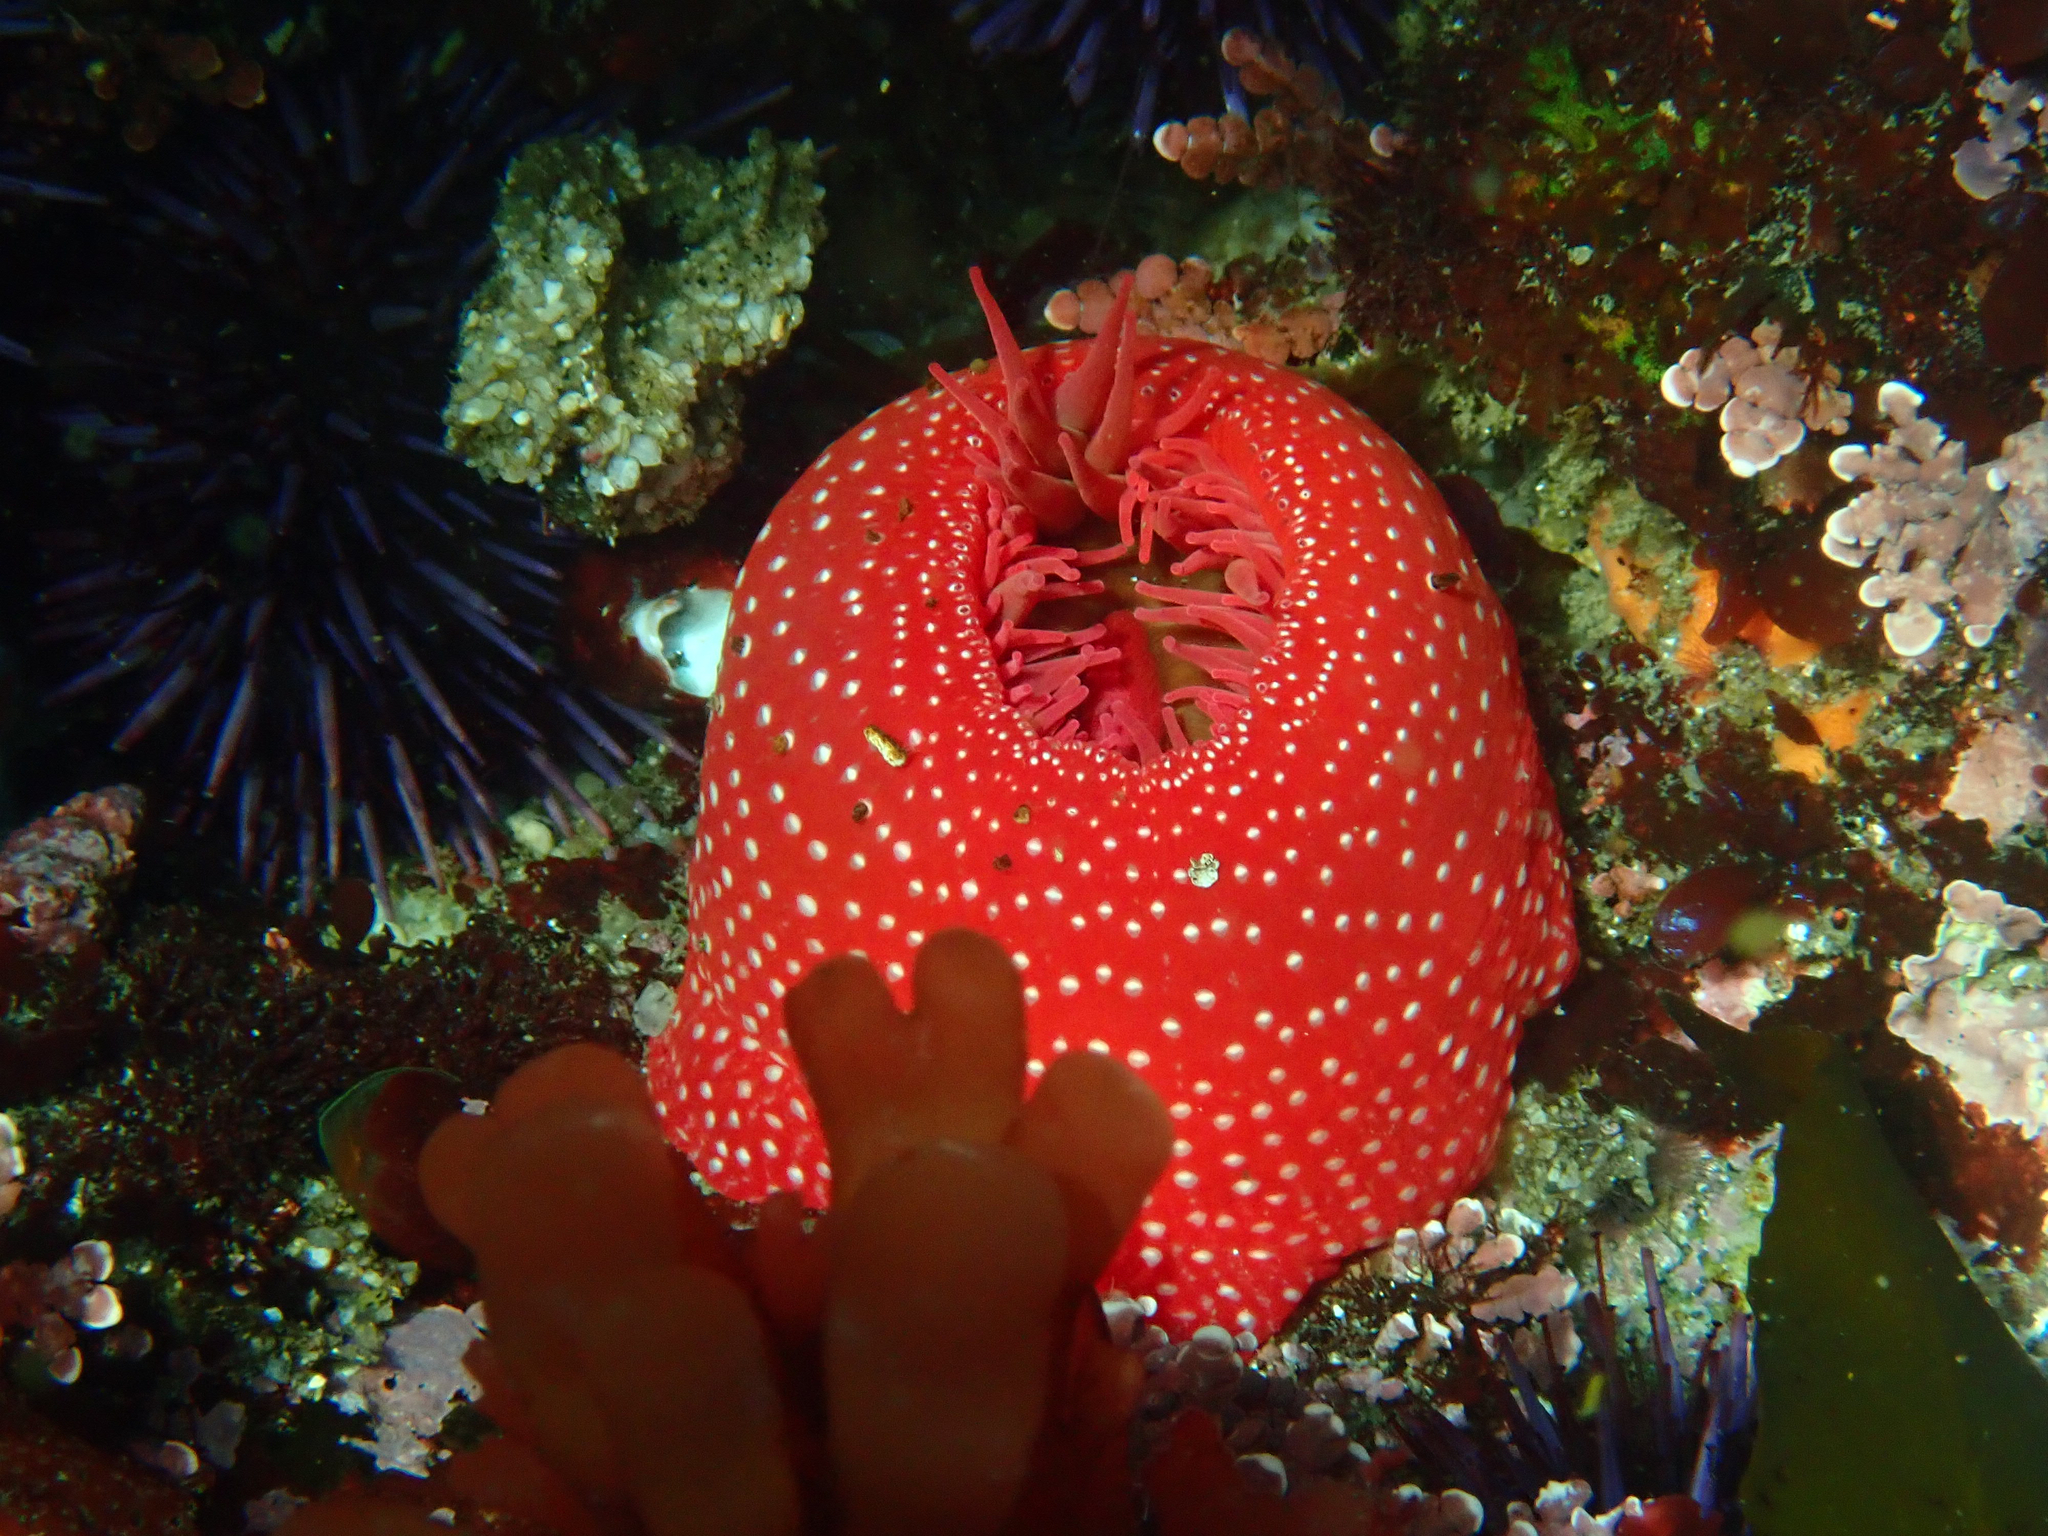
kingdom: Animalia
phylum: Cnidaria
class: Anthozoa
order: Actiniaria
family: Actiniidae
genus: Cribrinopsis
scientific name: Cribrinopsis albopunctata
